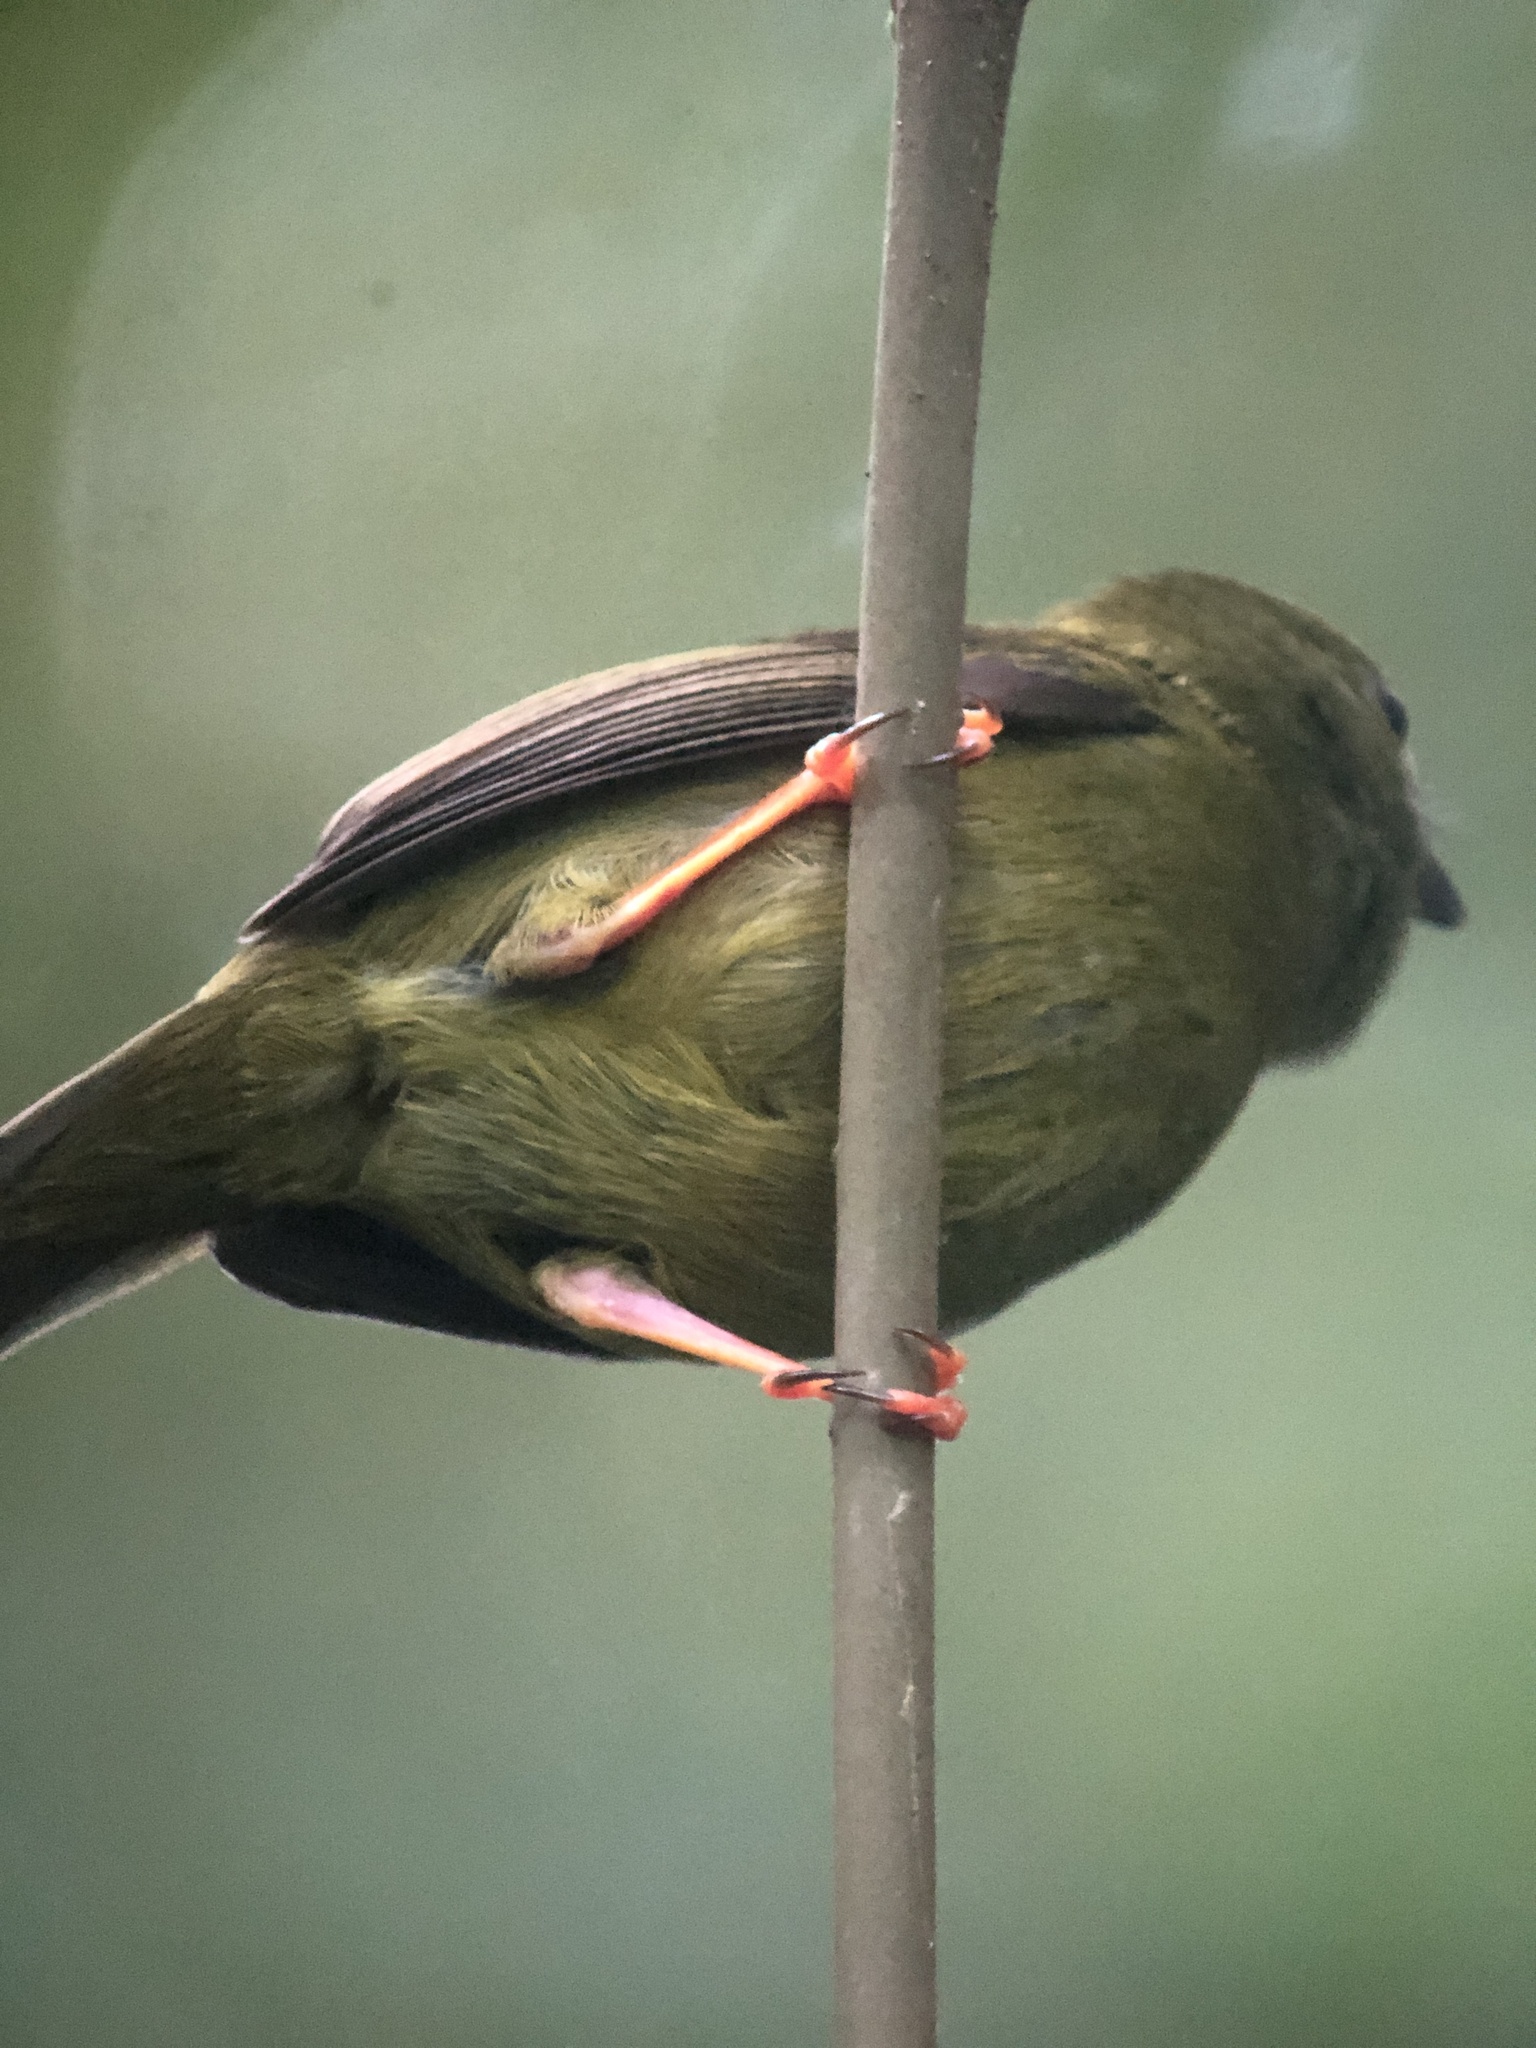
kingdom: Animalia
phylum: Chordata
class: Aves
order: Passeriformes
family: Pipridae
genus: Manacus
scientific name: Manacus vitellinus
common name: Golden-collared manakin
